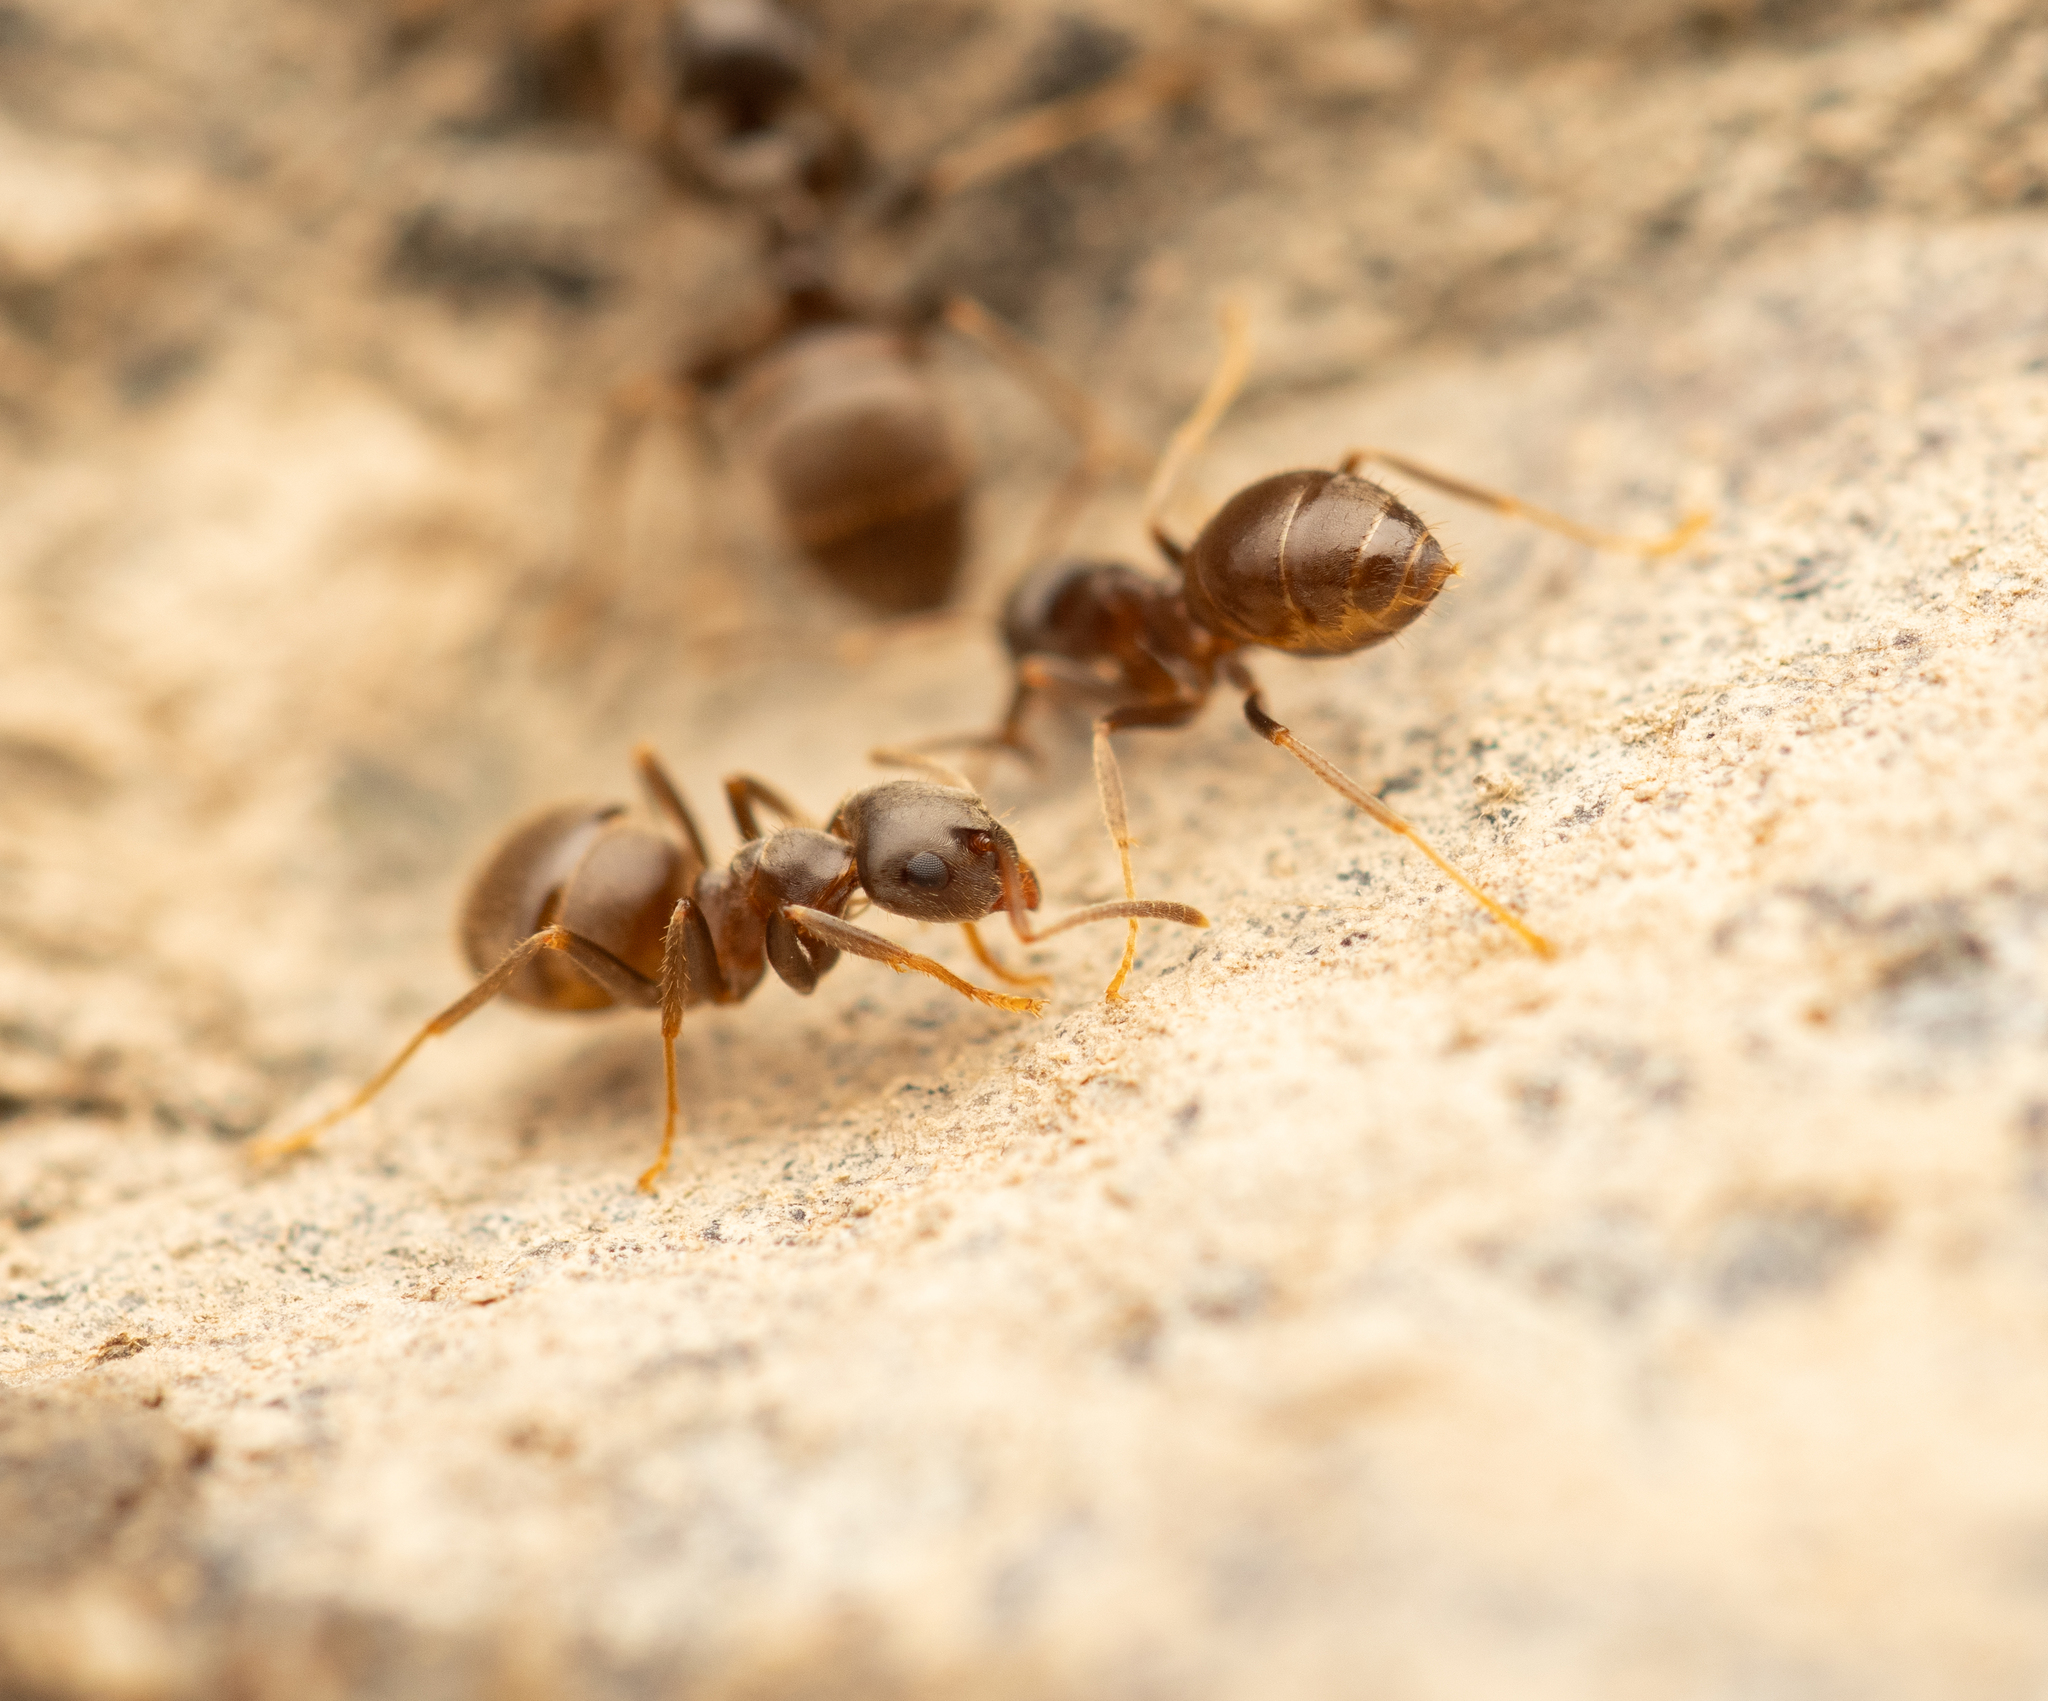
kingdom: Animalia
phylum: Arthropoda
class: Insecta
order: Hymenoptera
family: Formicidae
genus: Lasius
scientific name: Lasius niger
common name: Small black ant
